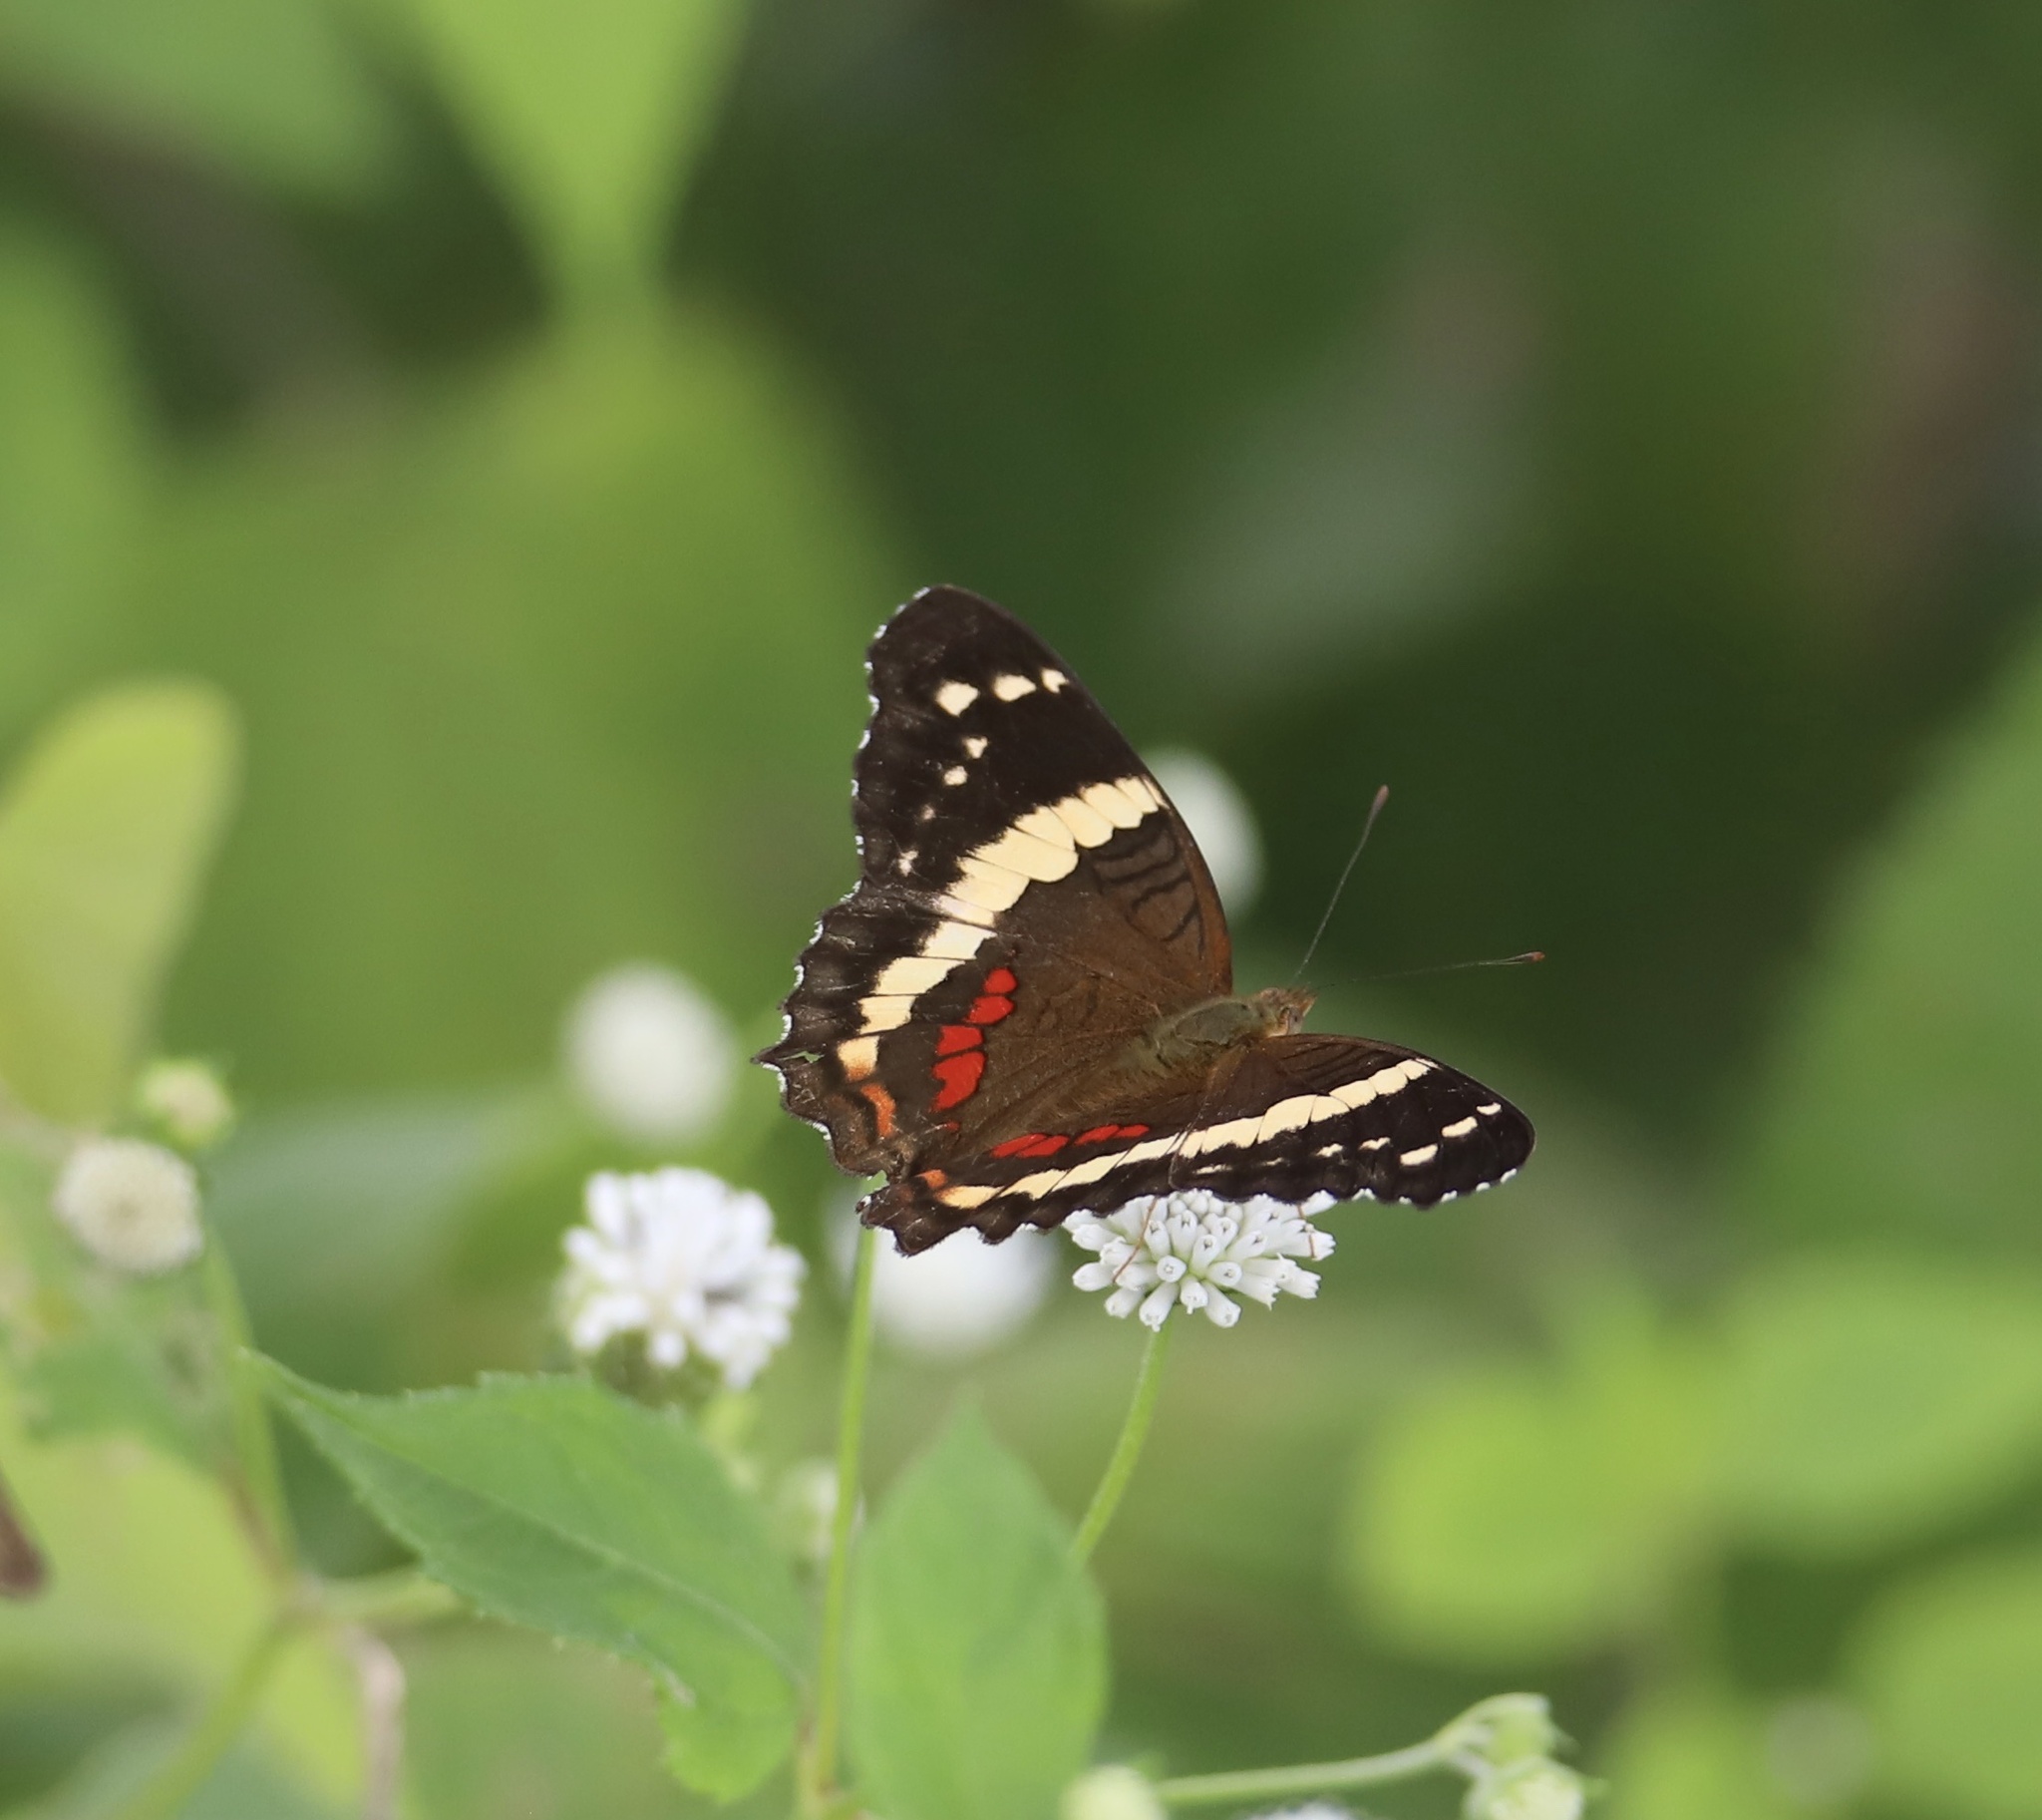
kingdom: Animalia
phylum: Arthropoda
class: Insecta
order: Lepidoptera
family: Nymphalidae
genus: Anartia
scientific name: Anartia fatima
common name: Banded peacock
